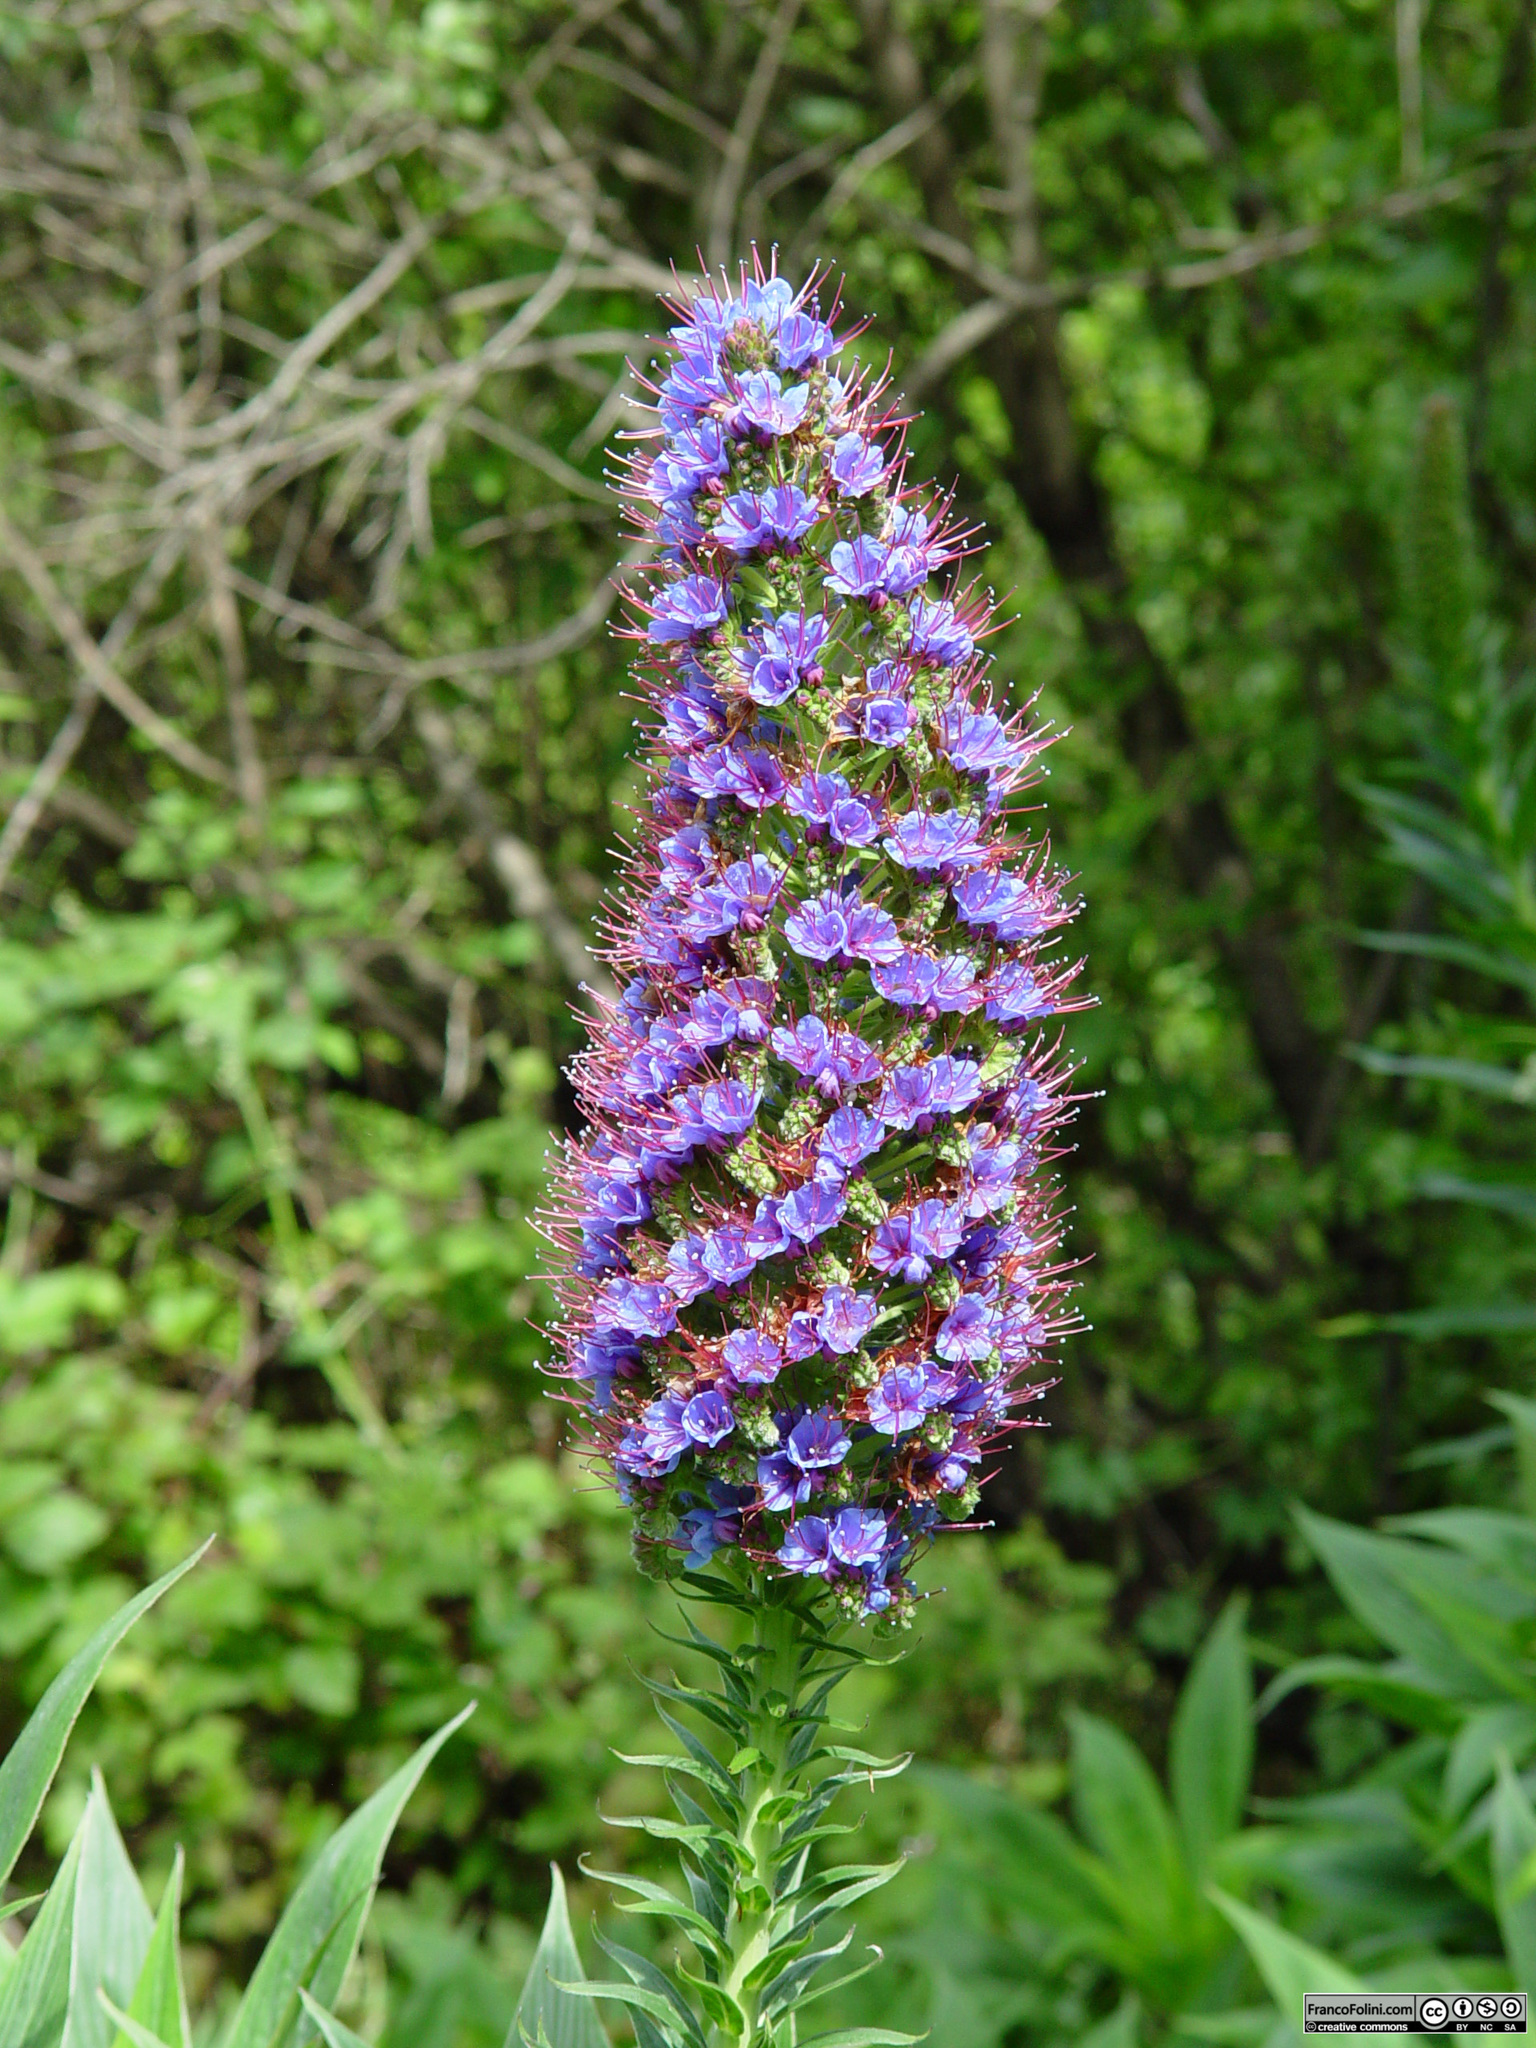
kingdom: Plantae
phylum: Tracheophyta
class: Magnoliopsida
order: Boraginales
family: Boraginaceae
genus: Echium
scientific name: Echium candicans
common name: Pride of madeira
